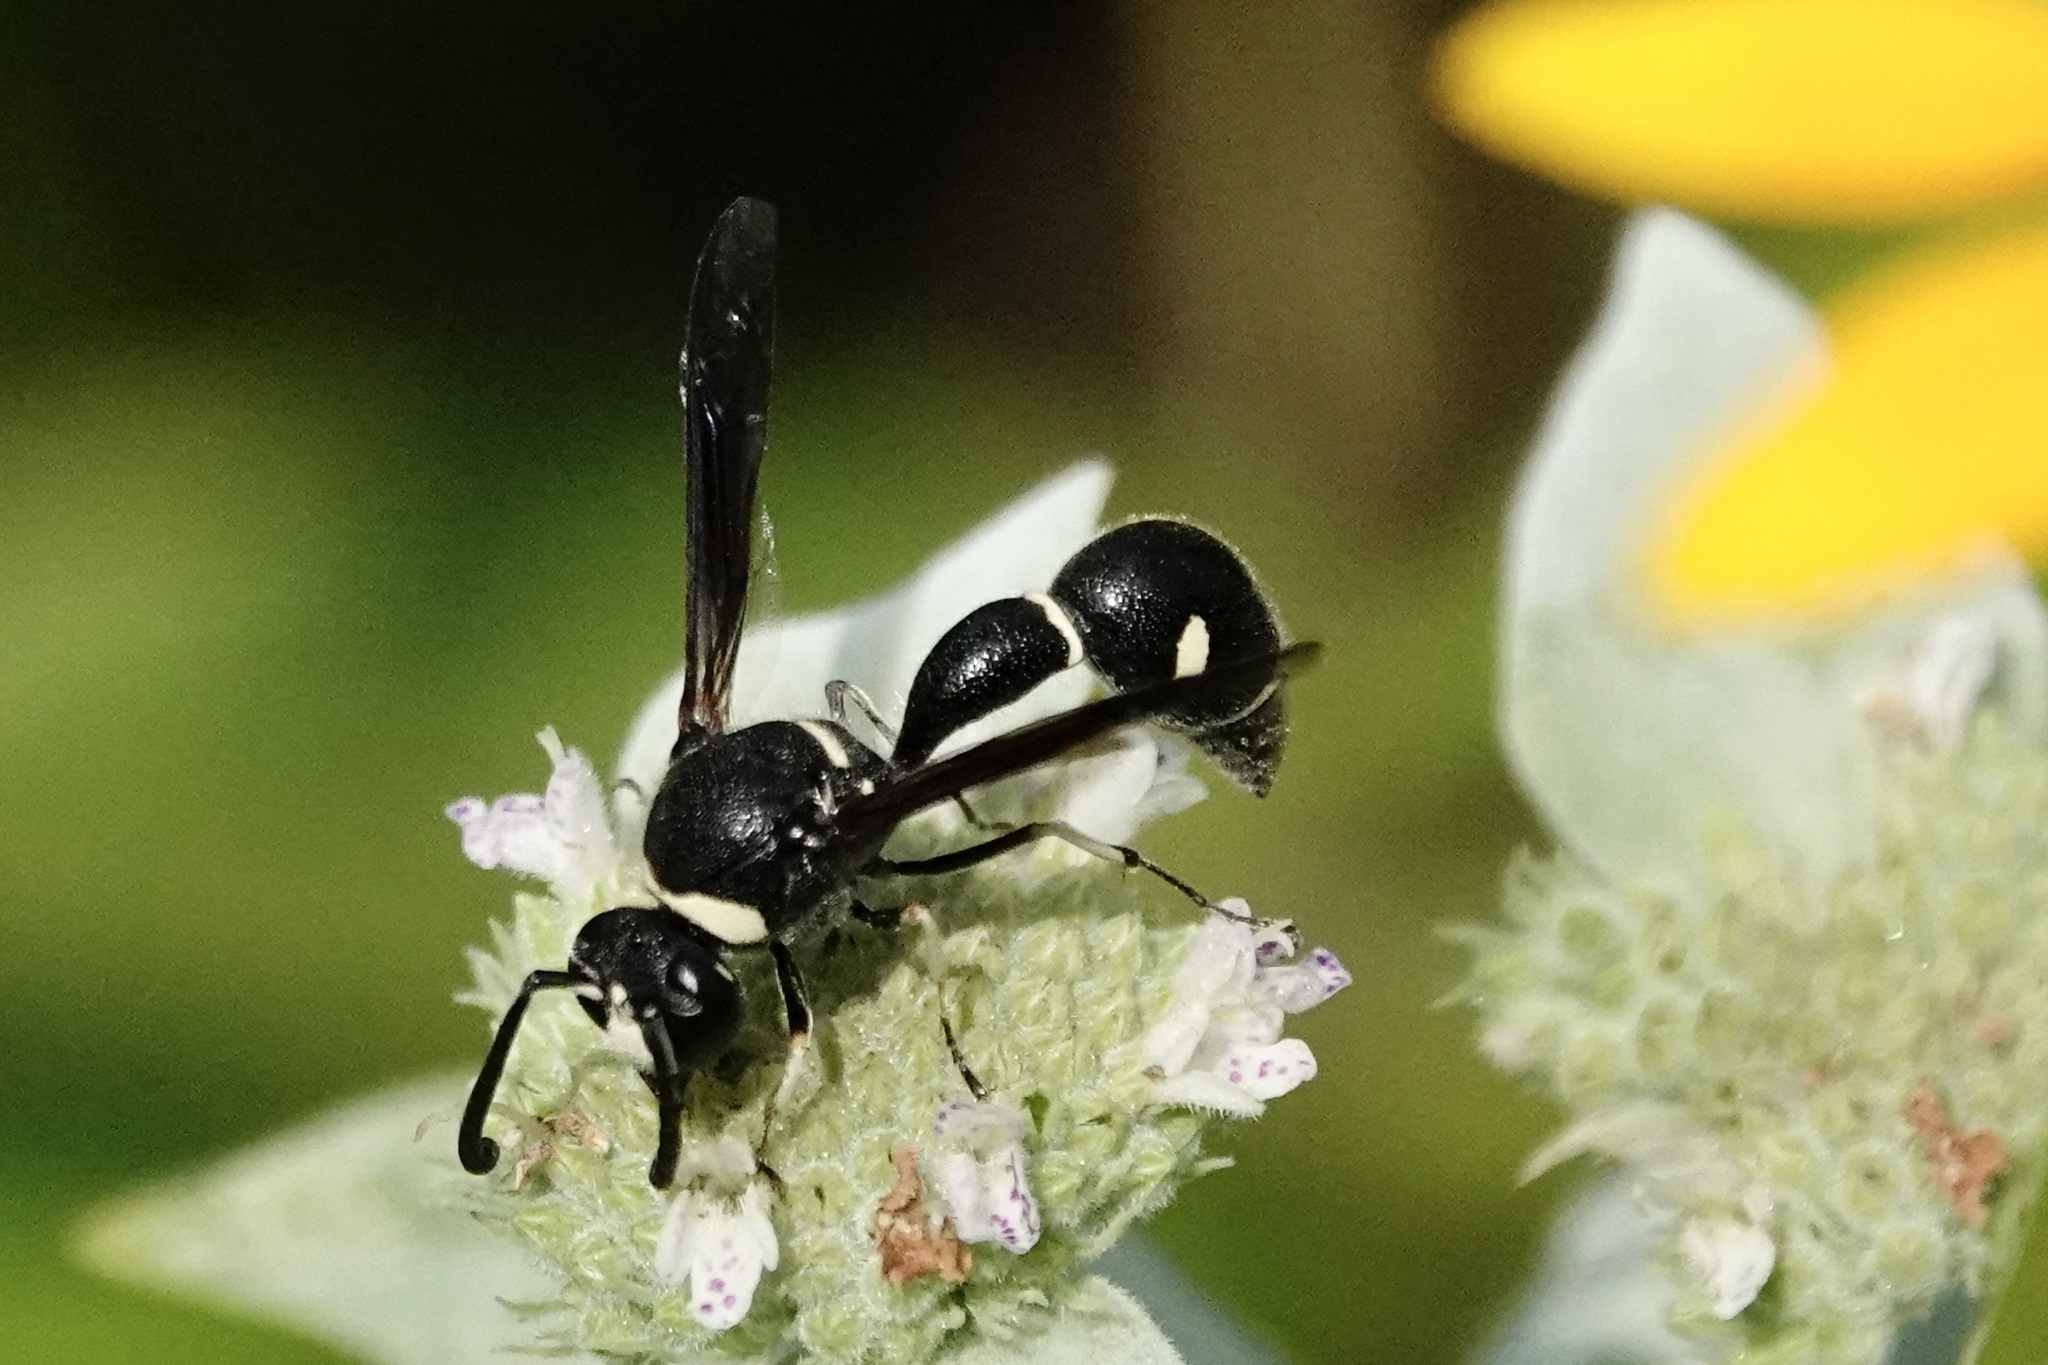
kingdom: Animalia
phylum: Arthropoda
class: Insecta
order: Hymenoptera
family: Vespidae
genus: Eumenes
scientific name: Eumenes fraternus
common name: Fraternal potter wasp
